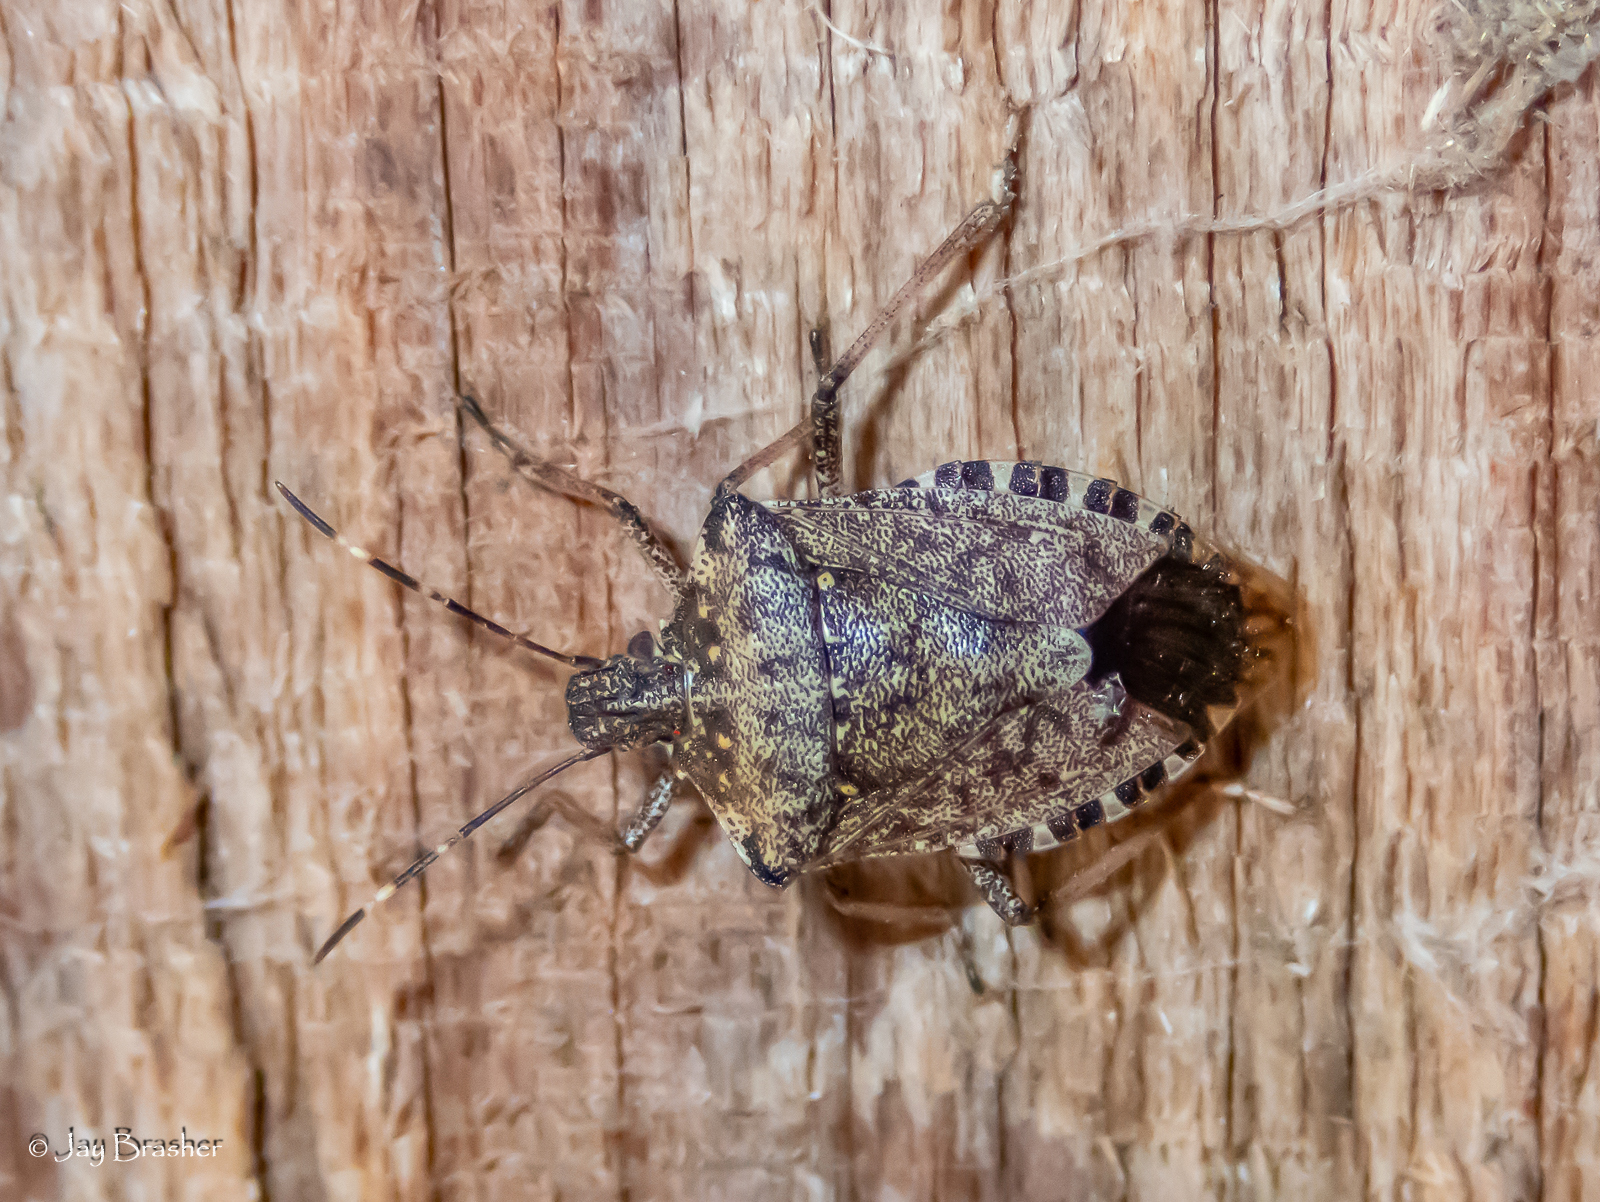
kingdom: Animalia
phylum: Arthropoda
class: Insecta
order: Hemiptera
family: Pentatomidae
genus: Halyomorpha
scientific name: Halyomorpha halys
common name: Brown marmorated stink bug
